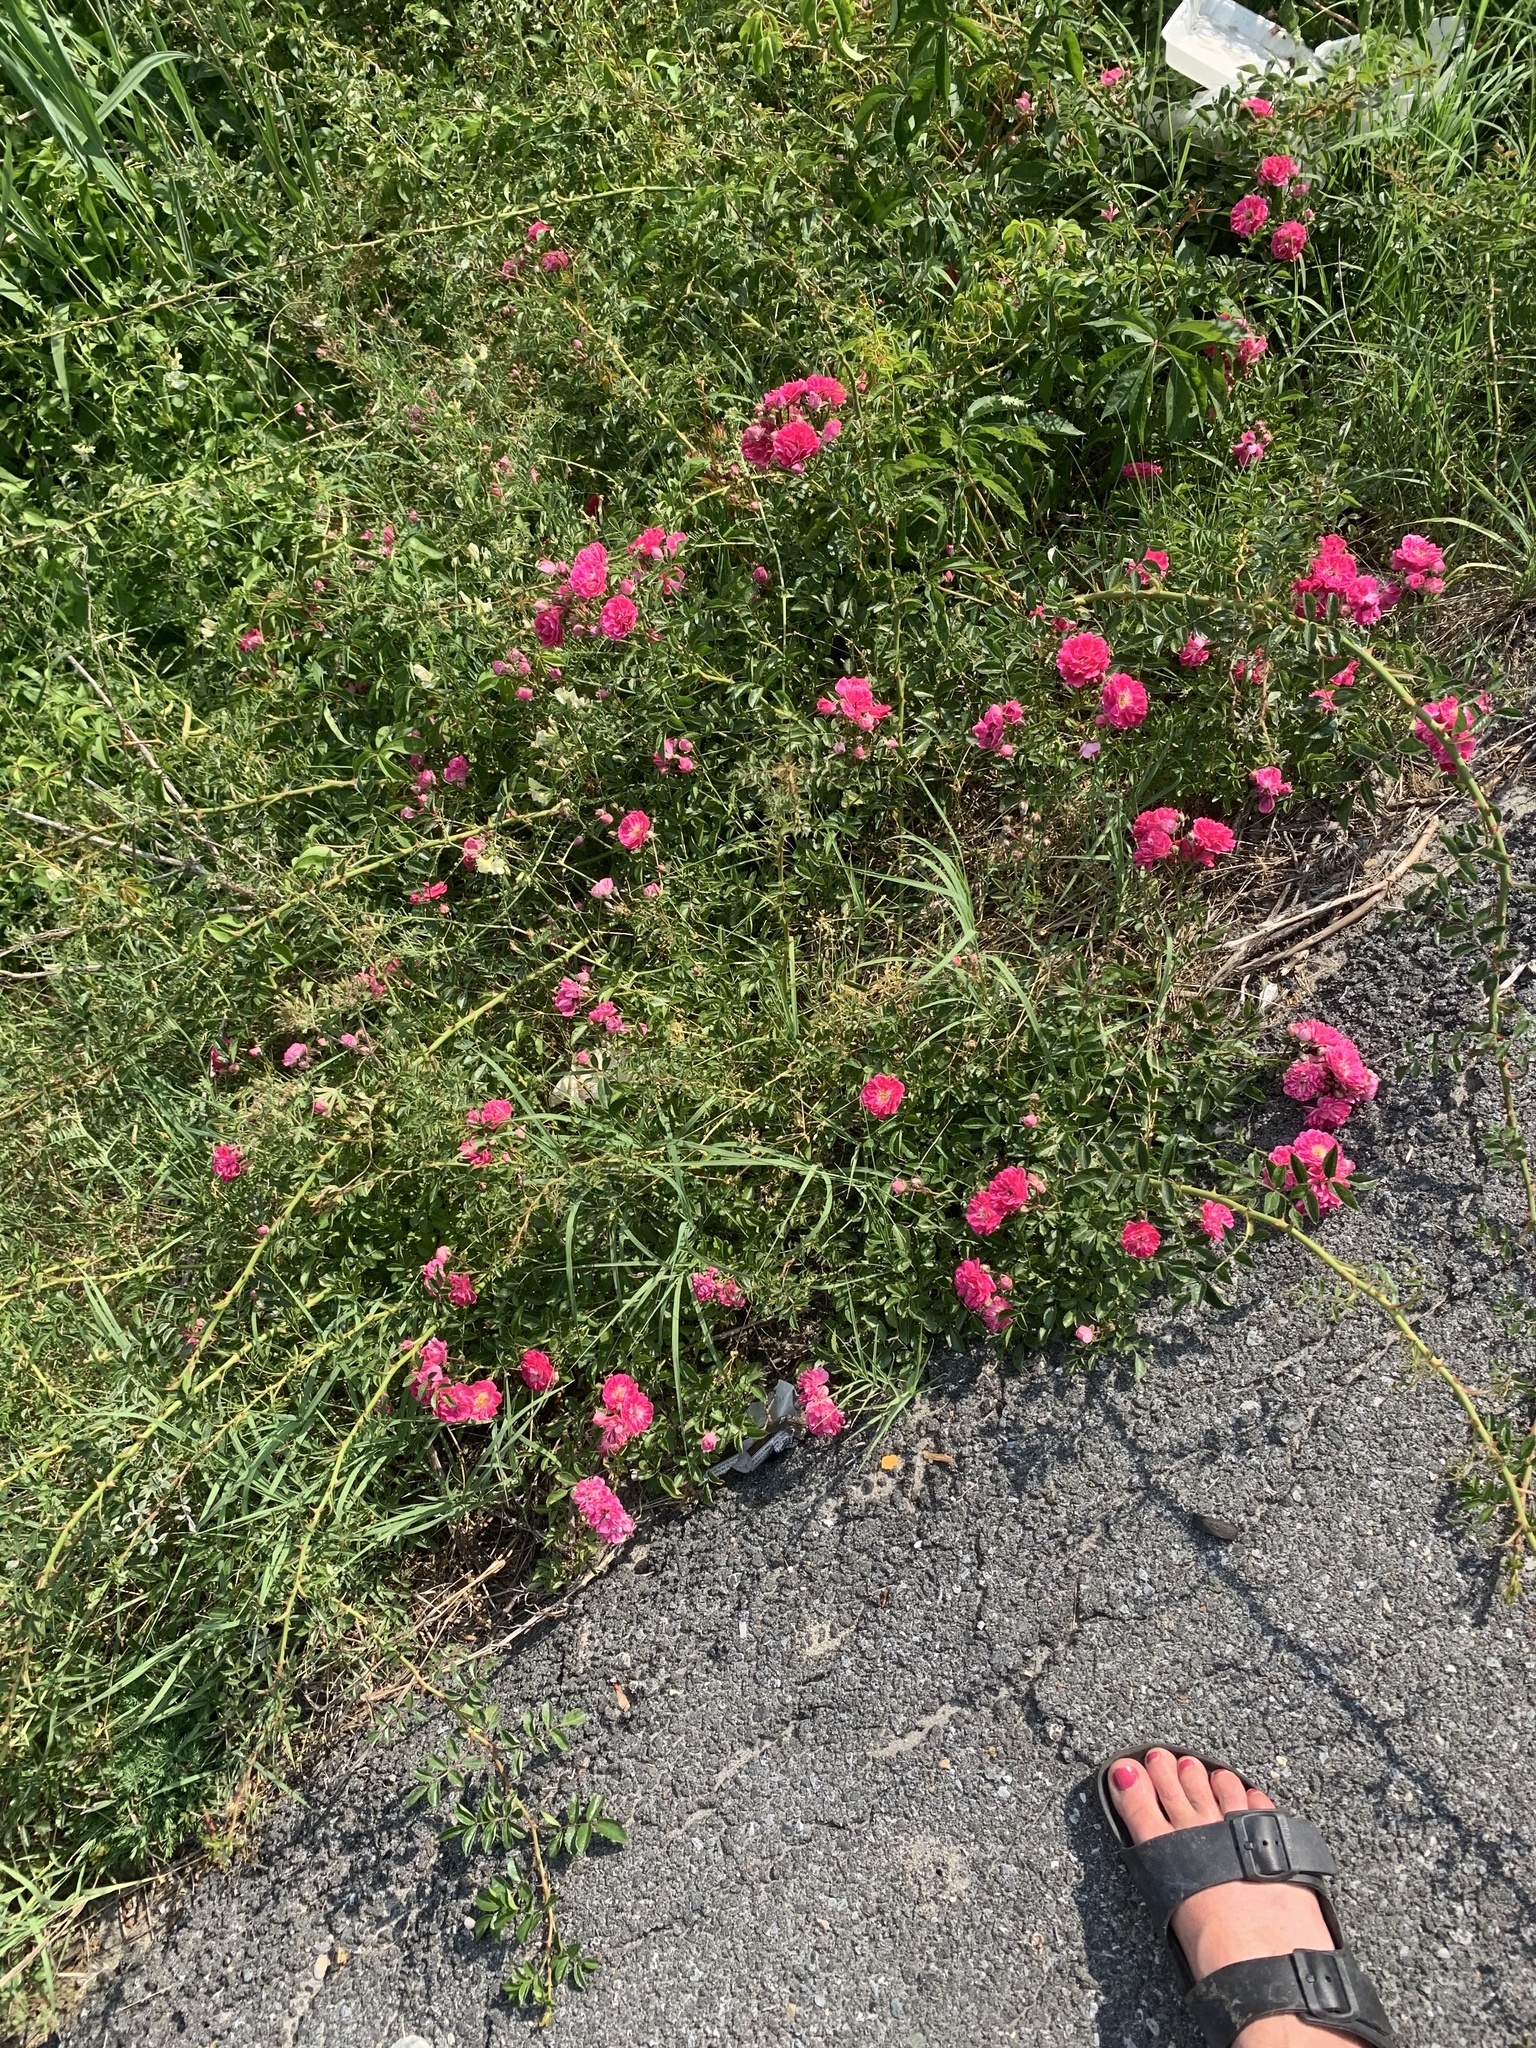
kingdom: Plantae
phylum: Tracheophyta
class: Magnoliopsida
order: Rosales
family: Rosaceae
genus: Rosa
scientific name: Rosa
